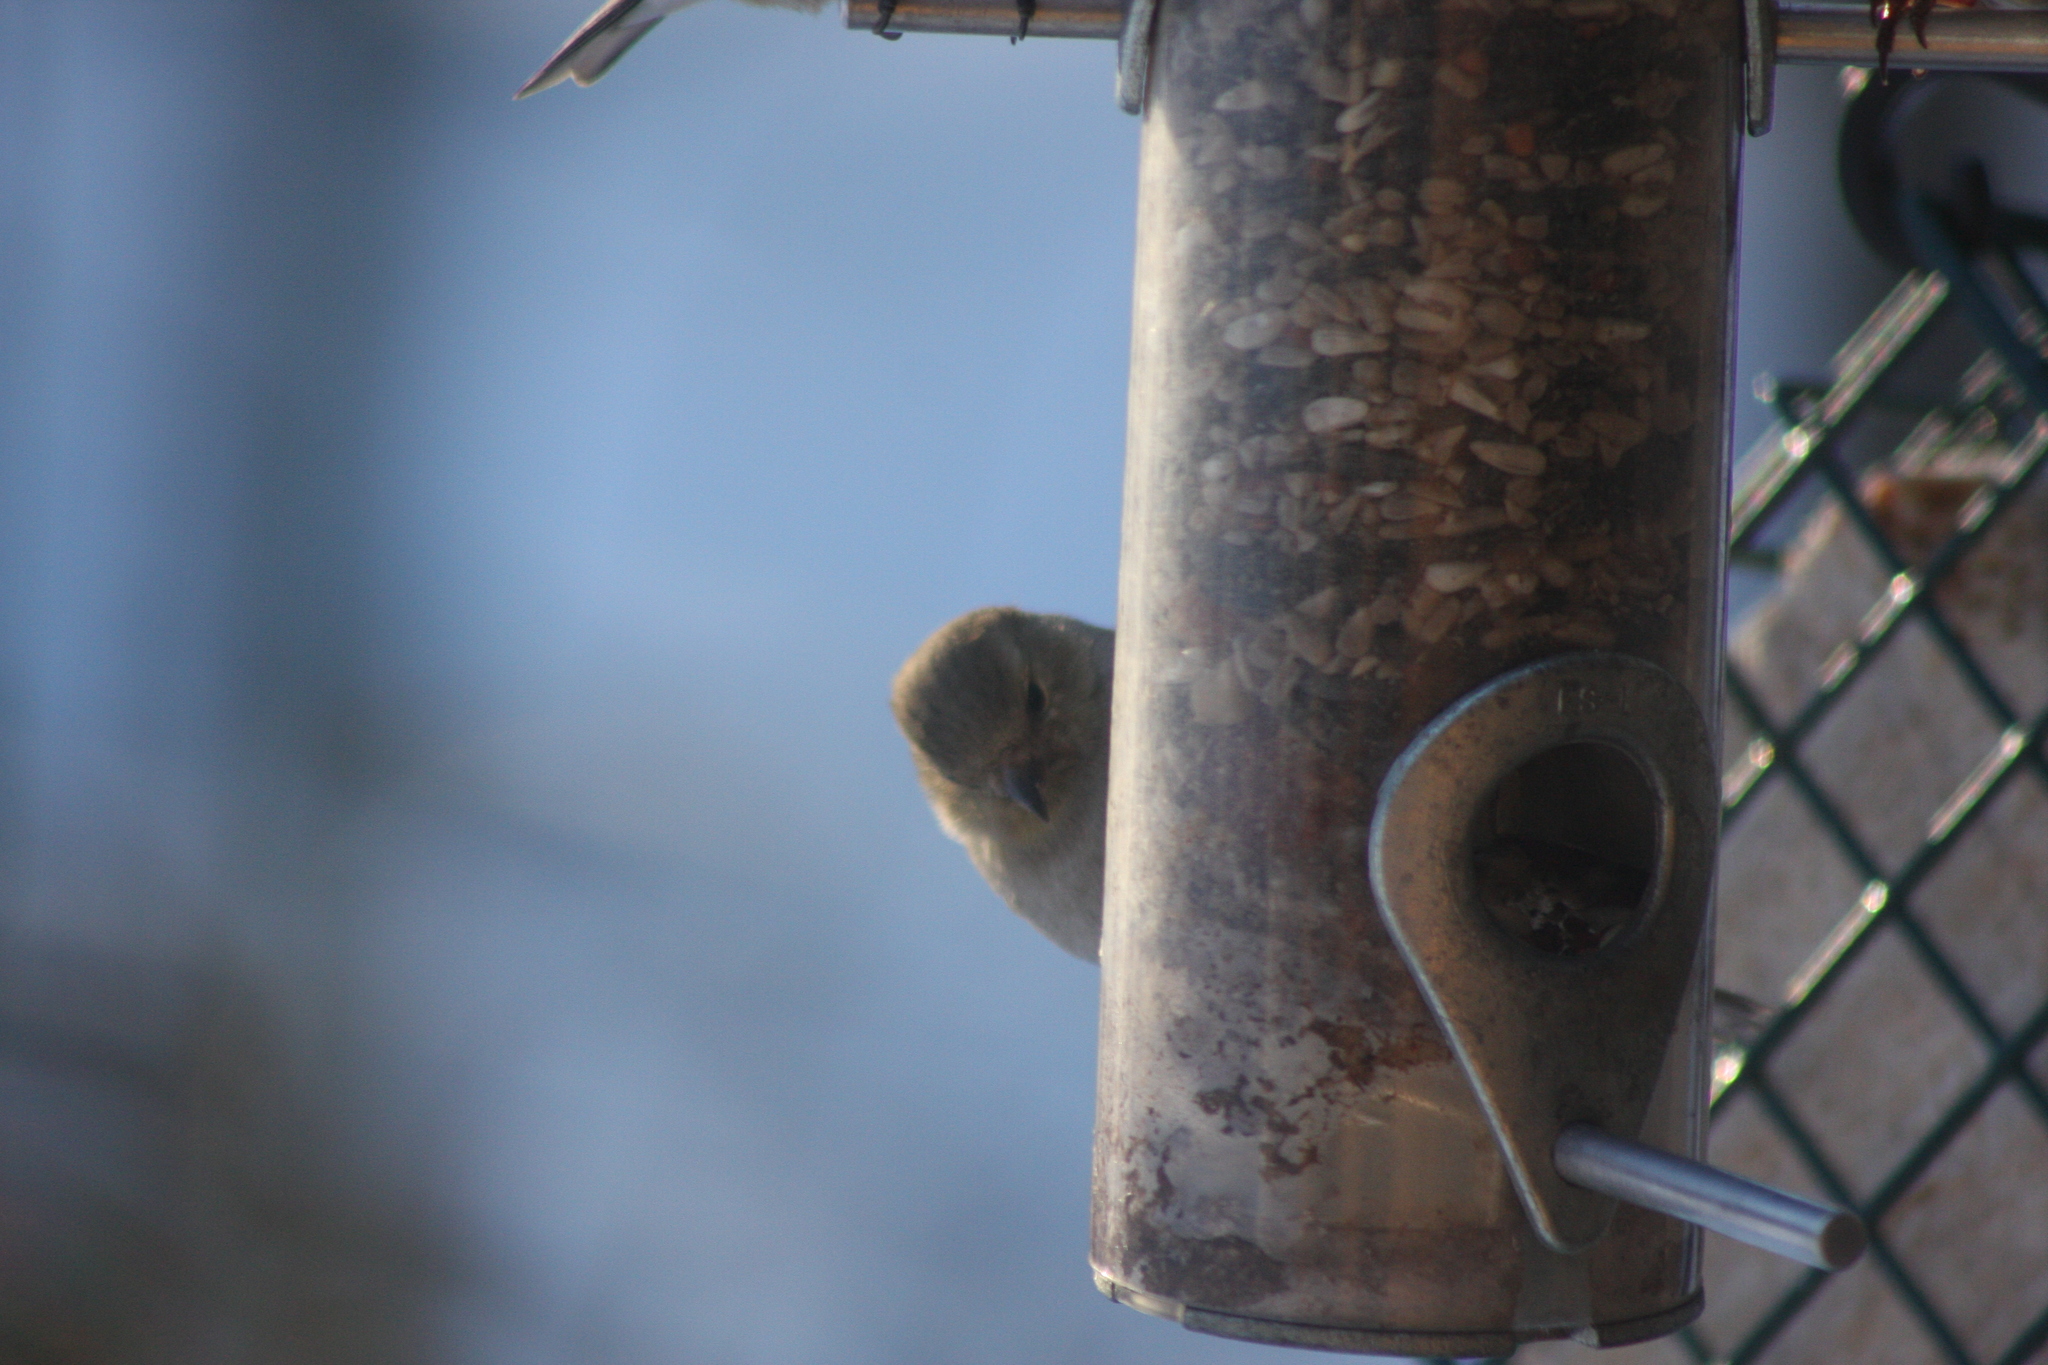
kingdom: Animalia
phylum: Chordata
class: Aves
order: Passeriformes
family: Fringillidae
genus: Spinus
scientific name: Spinus tristis
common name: American goldfinch
